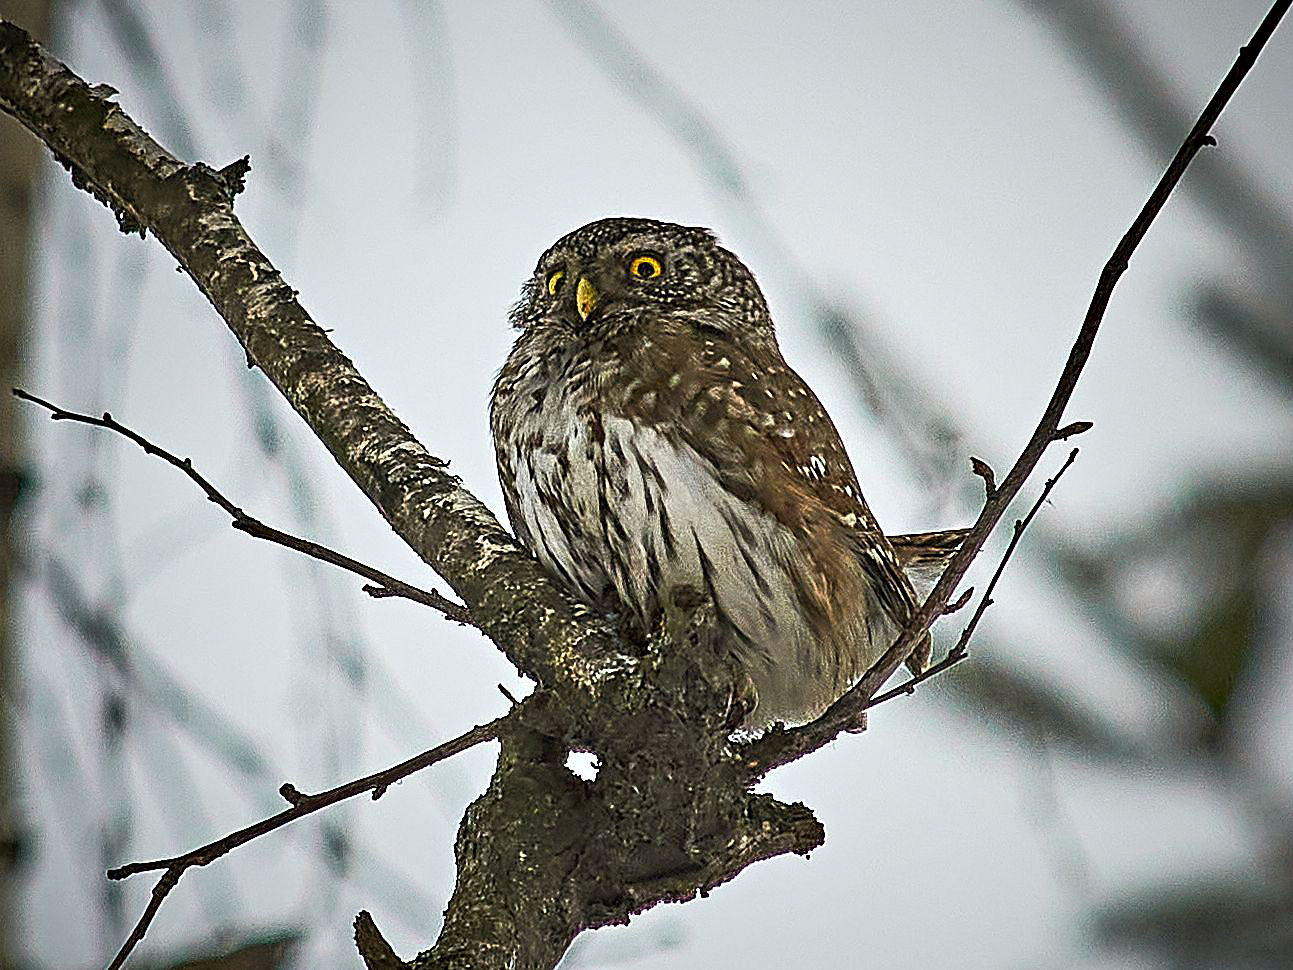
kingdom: Animalia
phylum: Chordata
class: Aves
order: Strigiformes
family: Strigidae
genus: Glaucidium
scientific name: Glaucidium passerinum
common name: Eurasian pygmy owl
